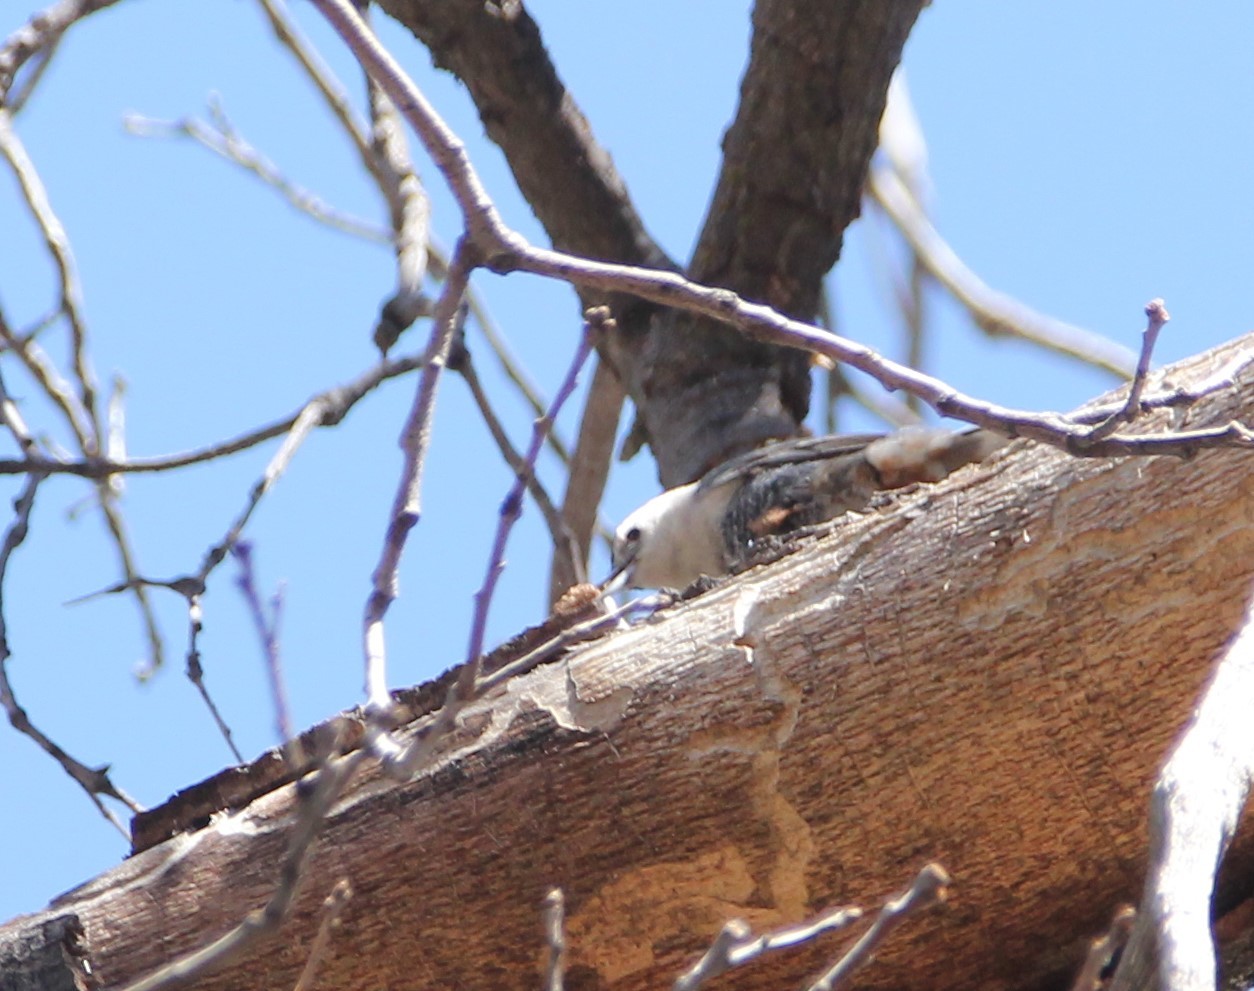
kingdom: Animalia
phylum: Chordata
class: Aves
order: Passeriformes
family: Sittidae
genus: Sitta
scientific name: Sitta carolinensis
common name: White-breasted nuthatch
